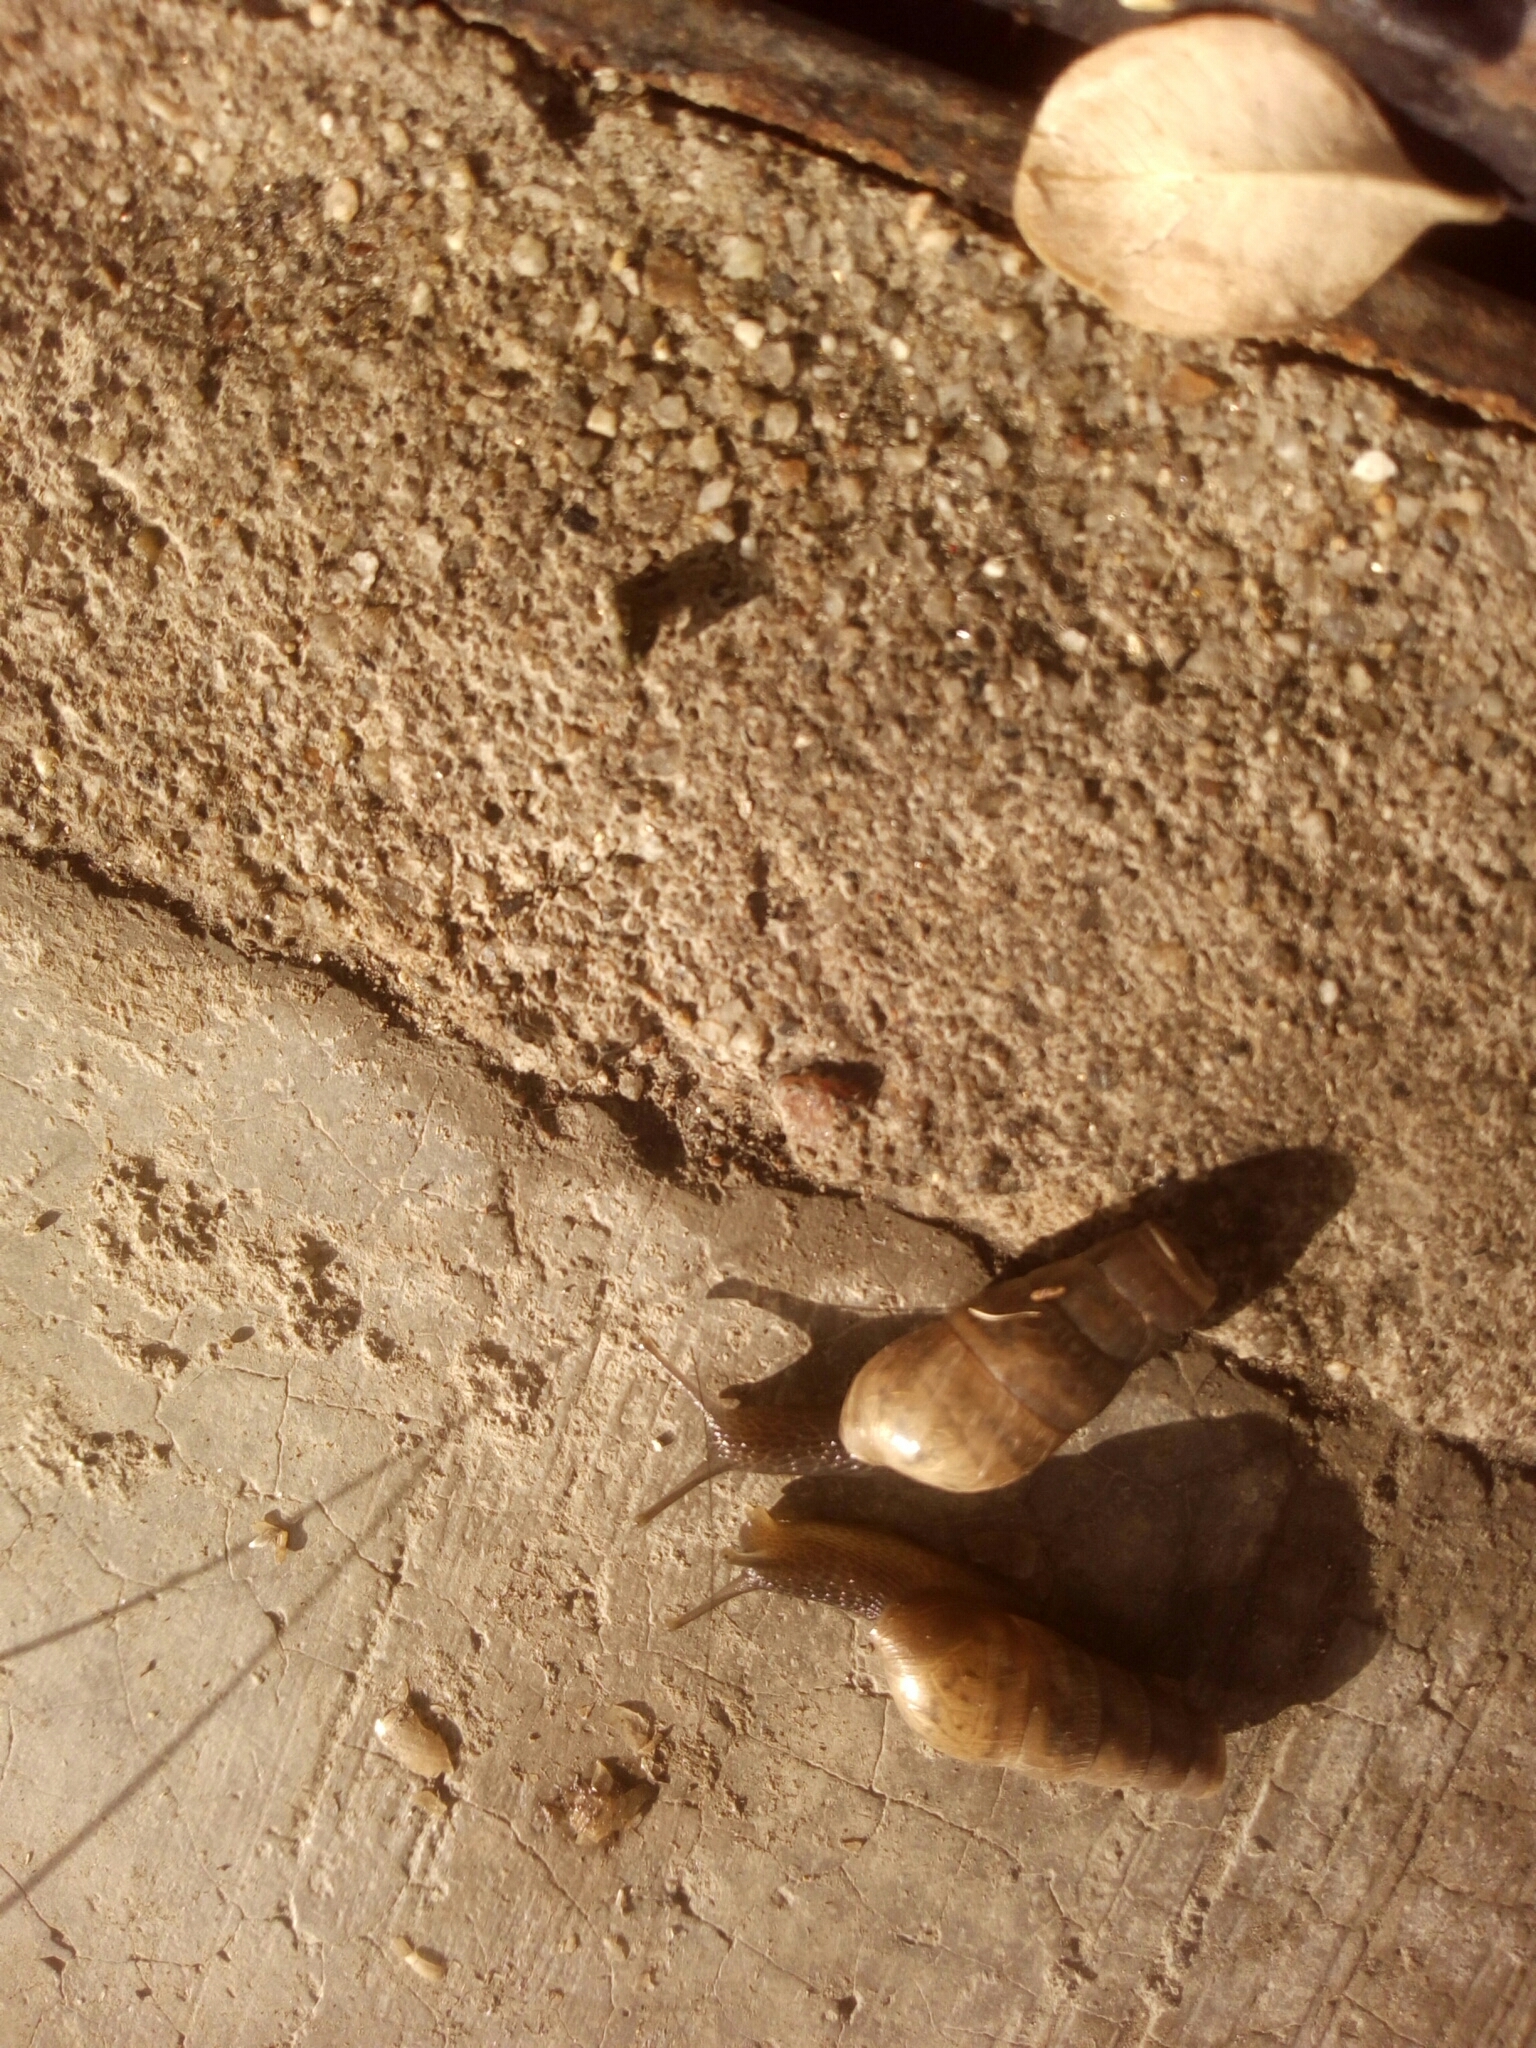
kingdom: Animalia
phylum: Mollusca
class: Gastropoda
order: Stylommatophora
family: Achatinidae
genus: Rumina
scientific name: Rumina decollata
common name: Decollate snail
